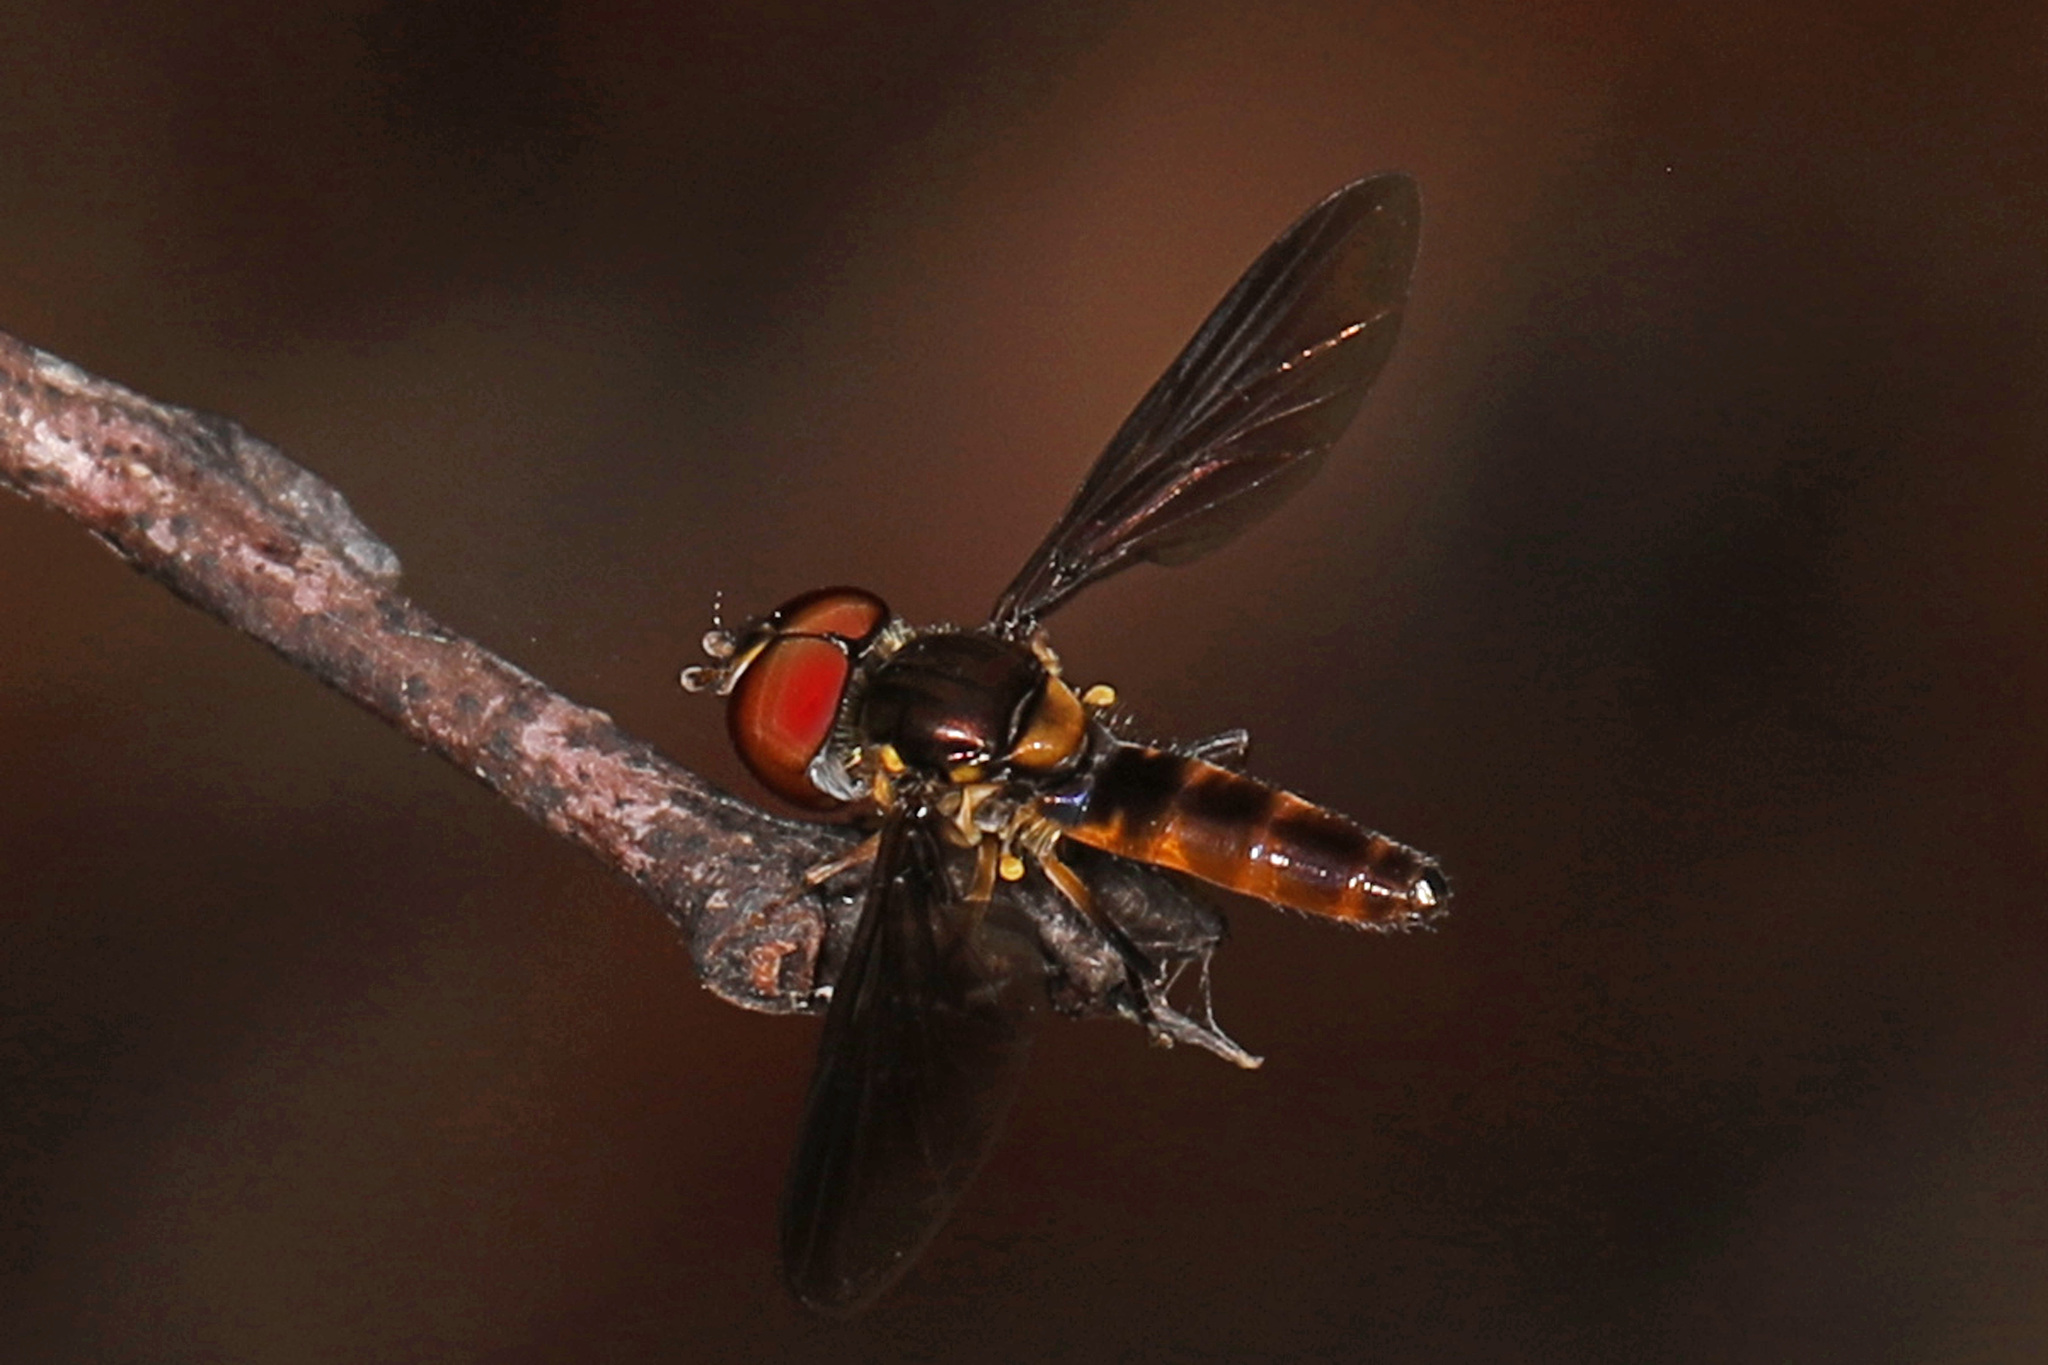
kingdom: Animalia
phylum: Arthropoda
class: Insecta
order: Diptera
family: Syrphidae
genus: Ocyptamus
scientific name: Ocyptamus antiphates
